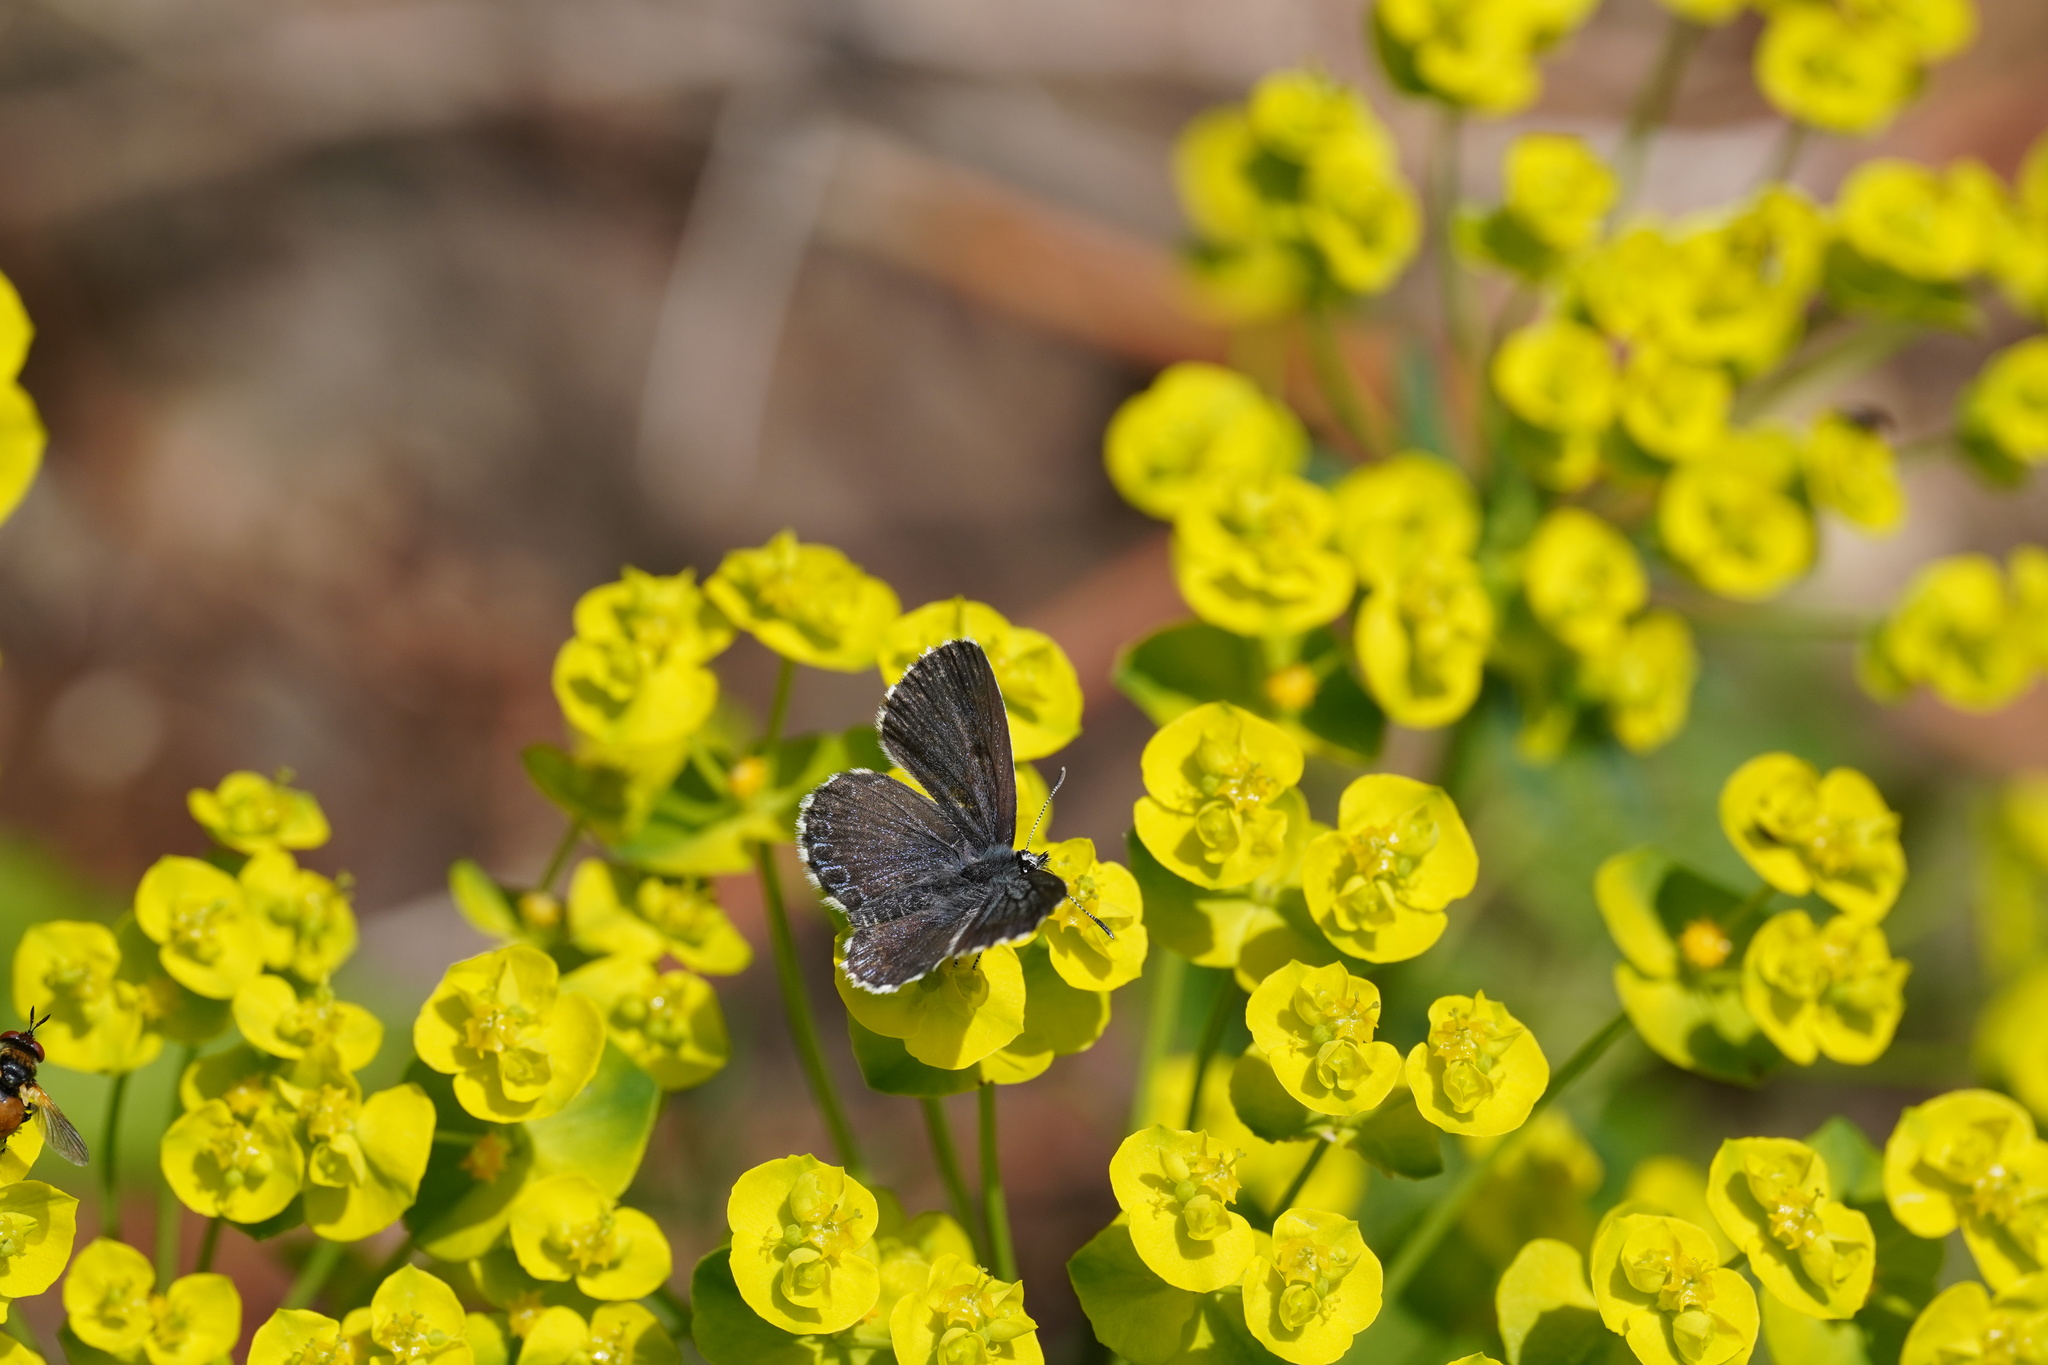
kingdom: Animalia
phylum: Arthropoda
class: Insecta
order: Lepidoptera
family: Lycaenidae
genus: Scolitantides
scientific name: Scolitantides orion
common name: Chequered blue
